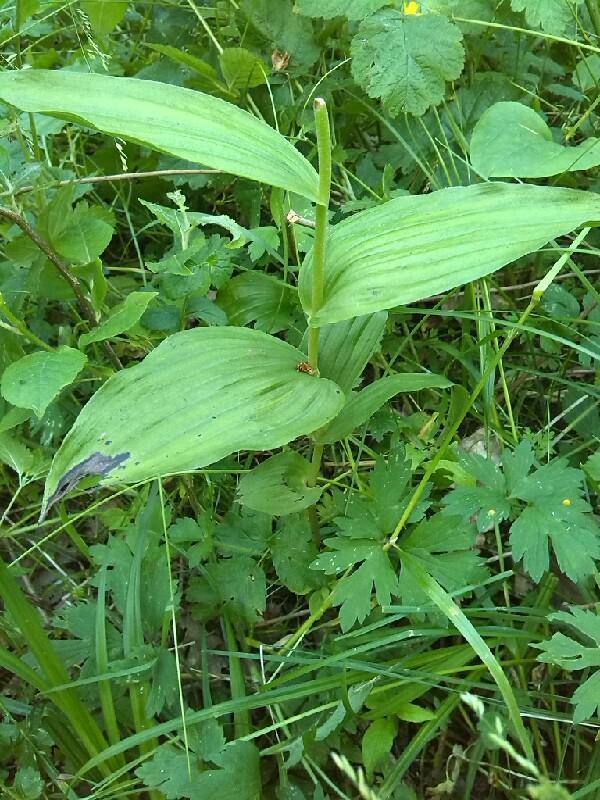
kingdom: Plantae
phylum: Tracheophyta
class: Liliopsida
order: Asparagales
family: Orchidaceae
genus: Cypripedium
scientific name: Cypripedium calceolus
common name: Lady's-slipper
